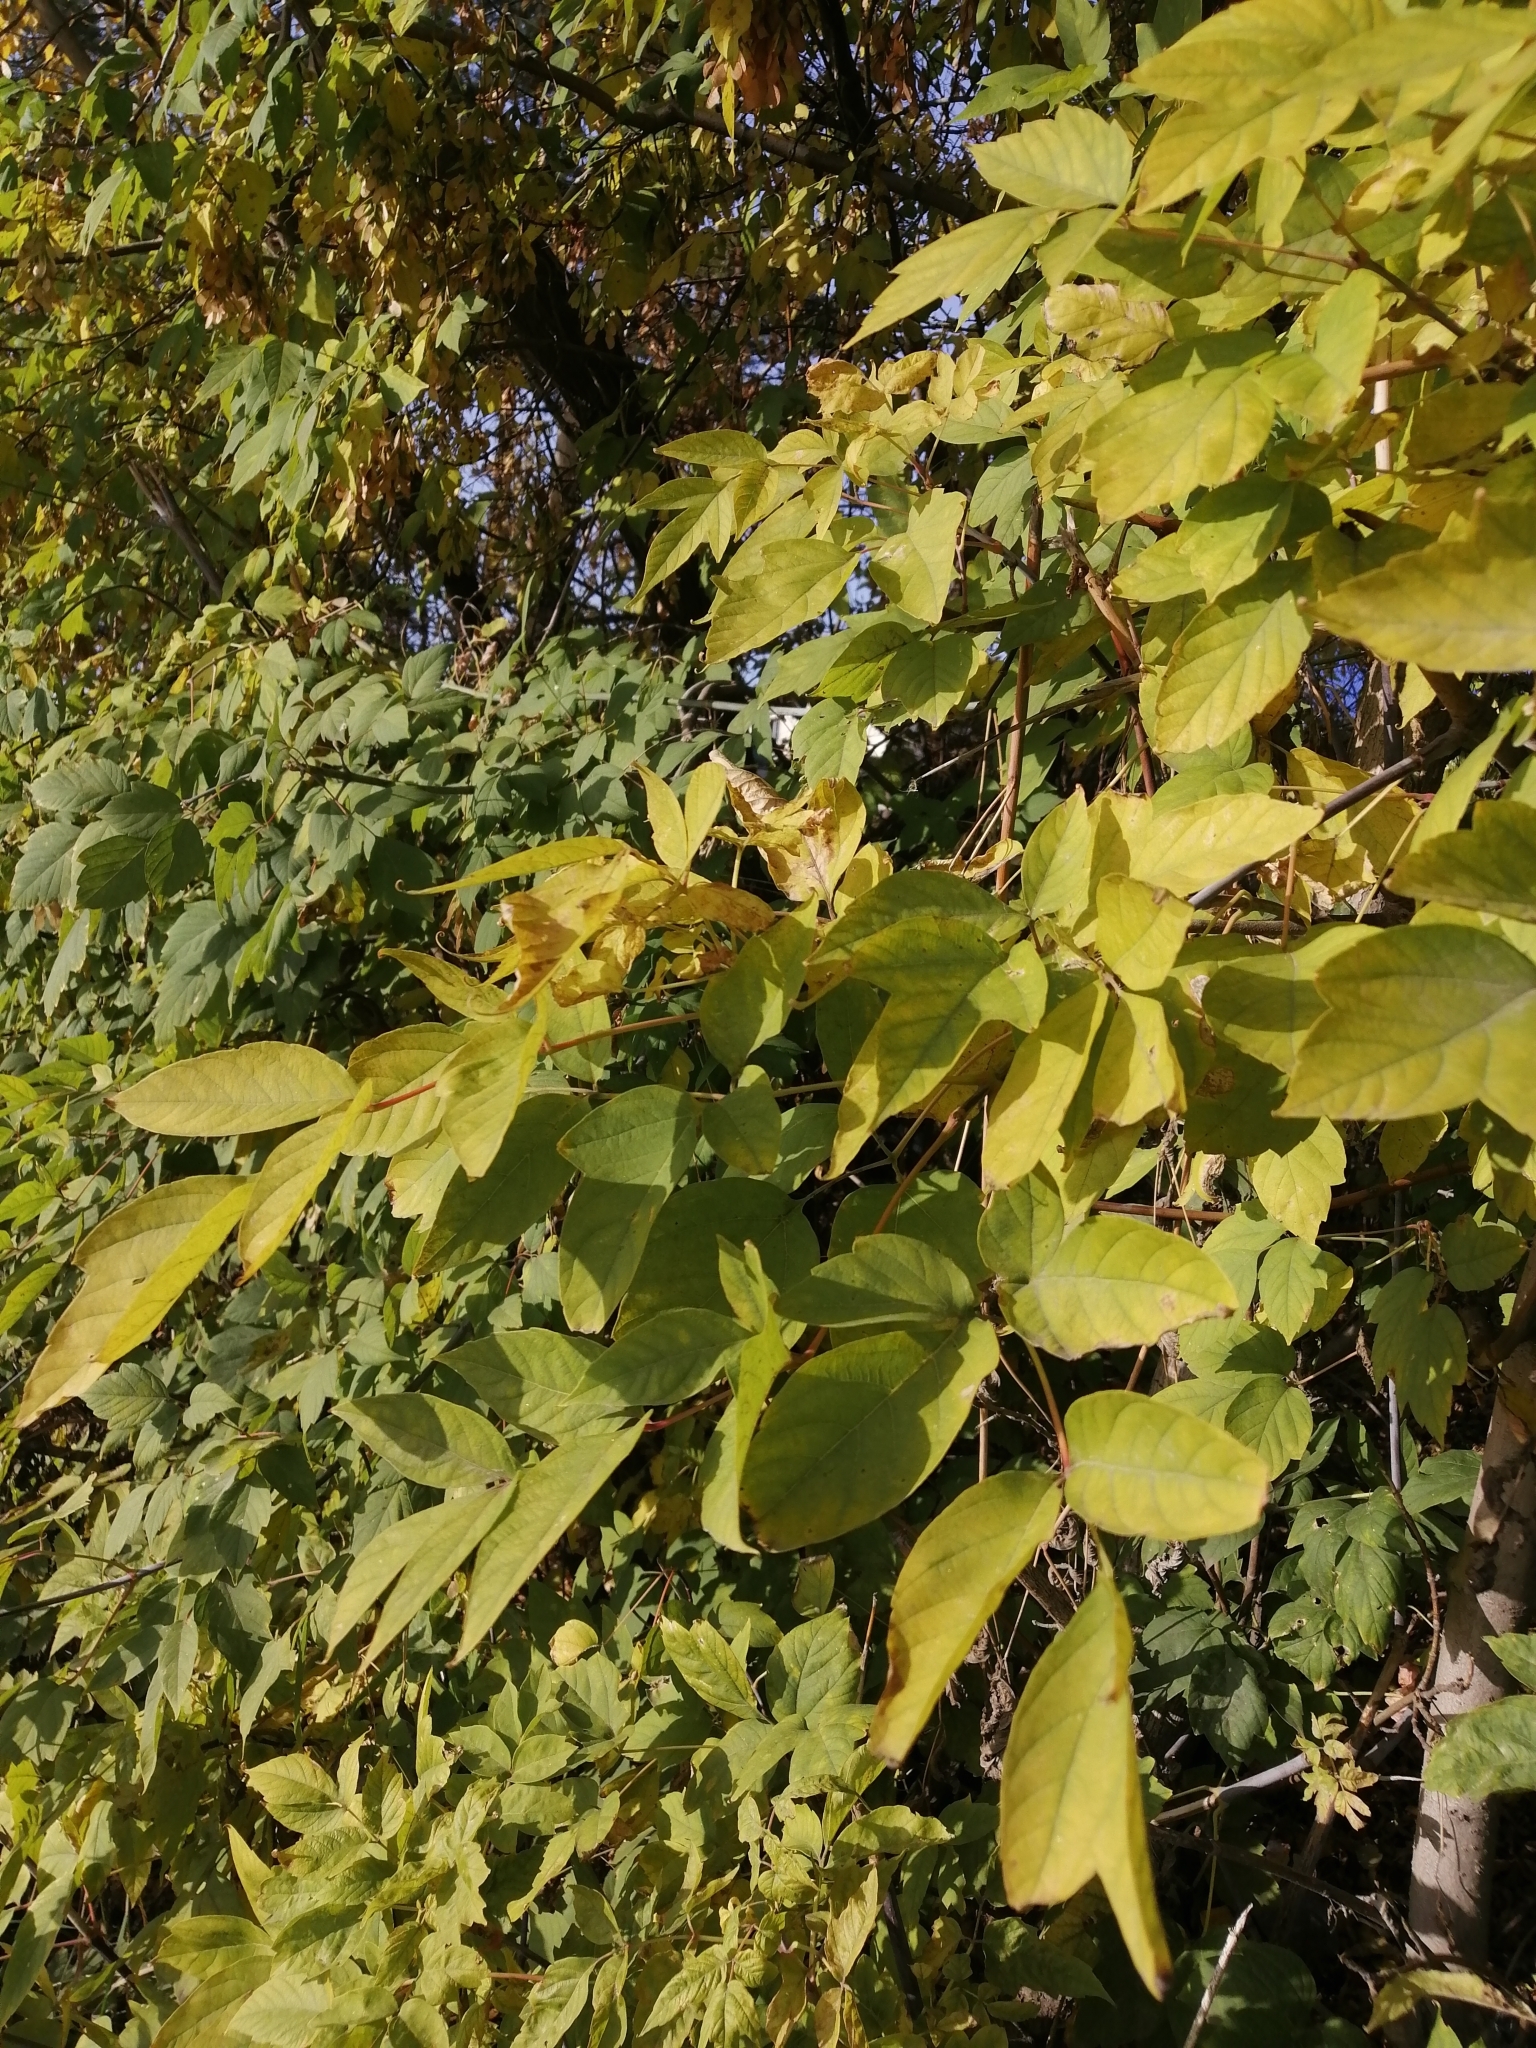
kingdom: Plantae
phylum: Tracheophyta
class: Magnoliopsida
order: Sapindales
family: Sapindaceae
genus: Acer
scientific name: Acer negundo
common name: Ashleaf maple
